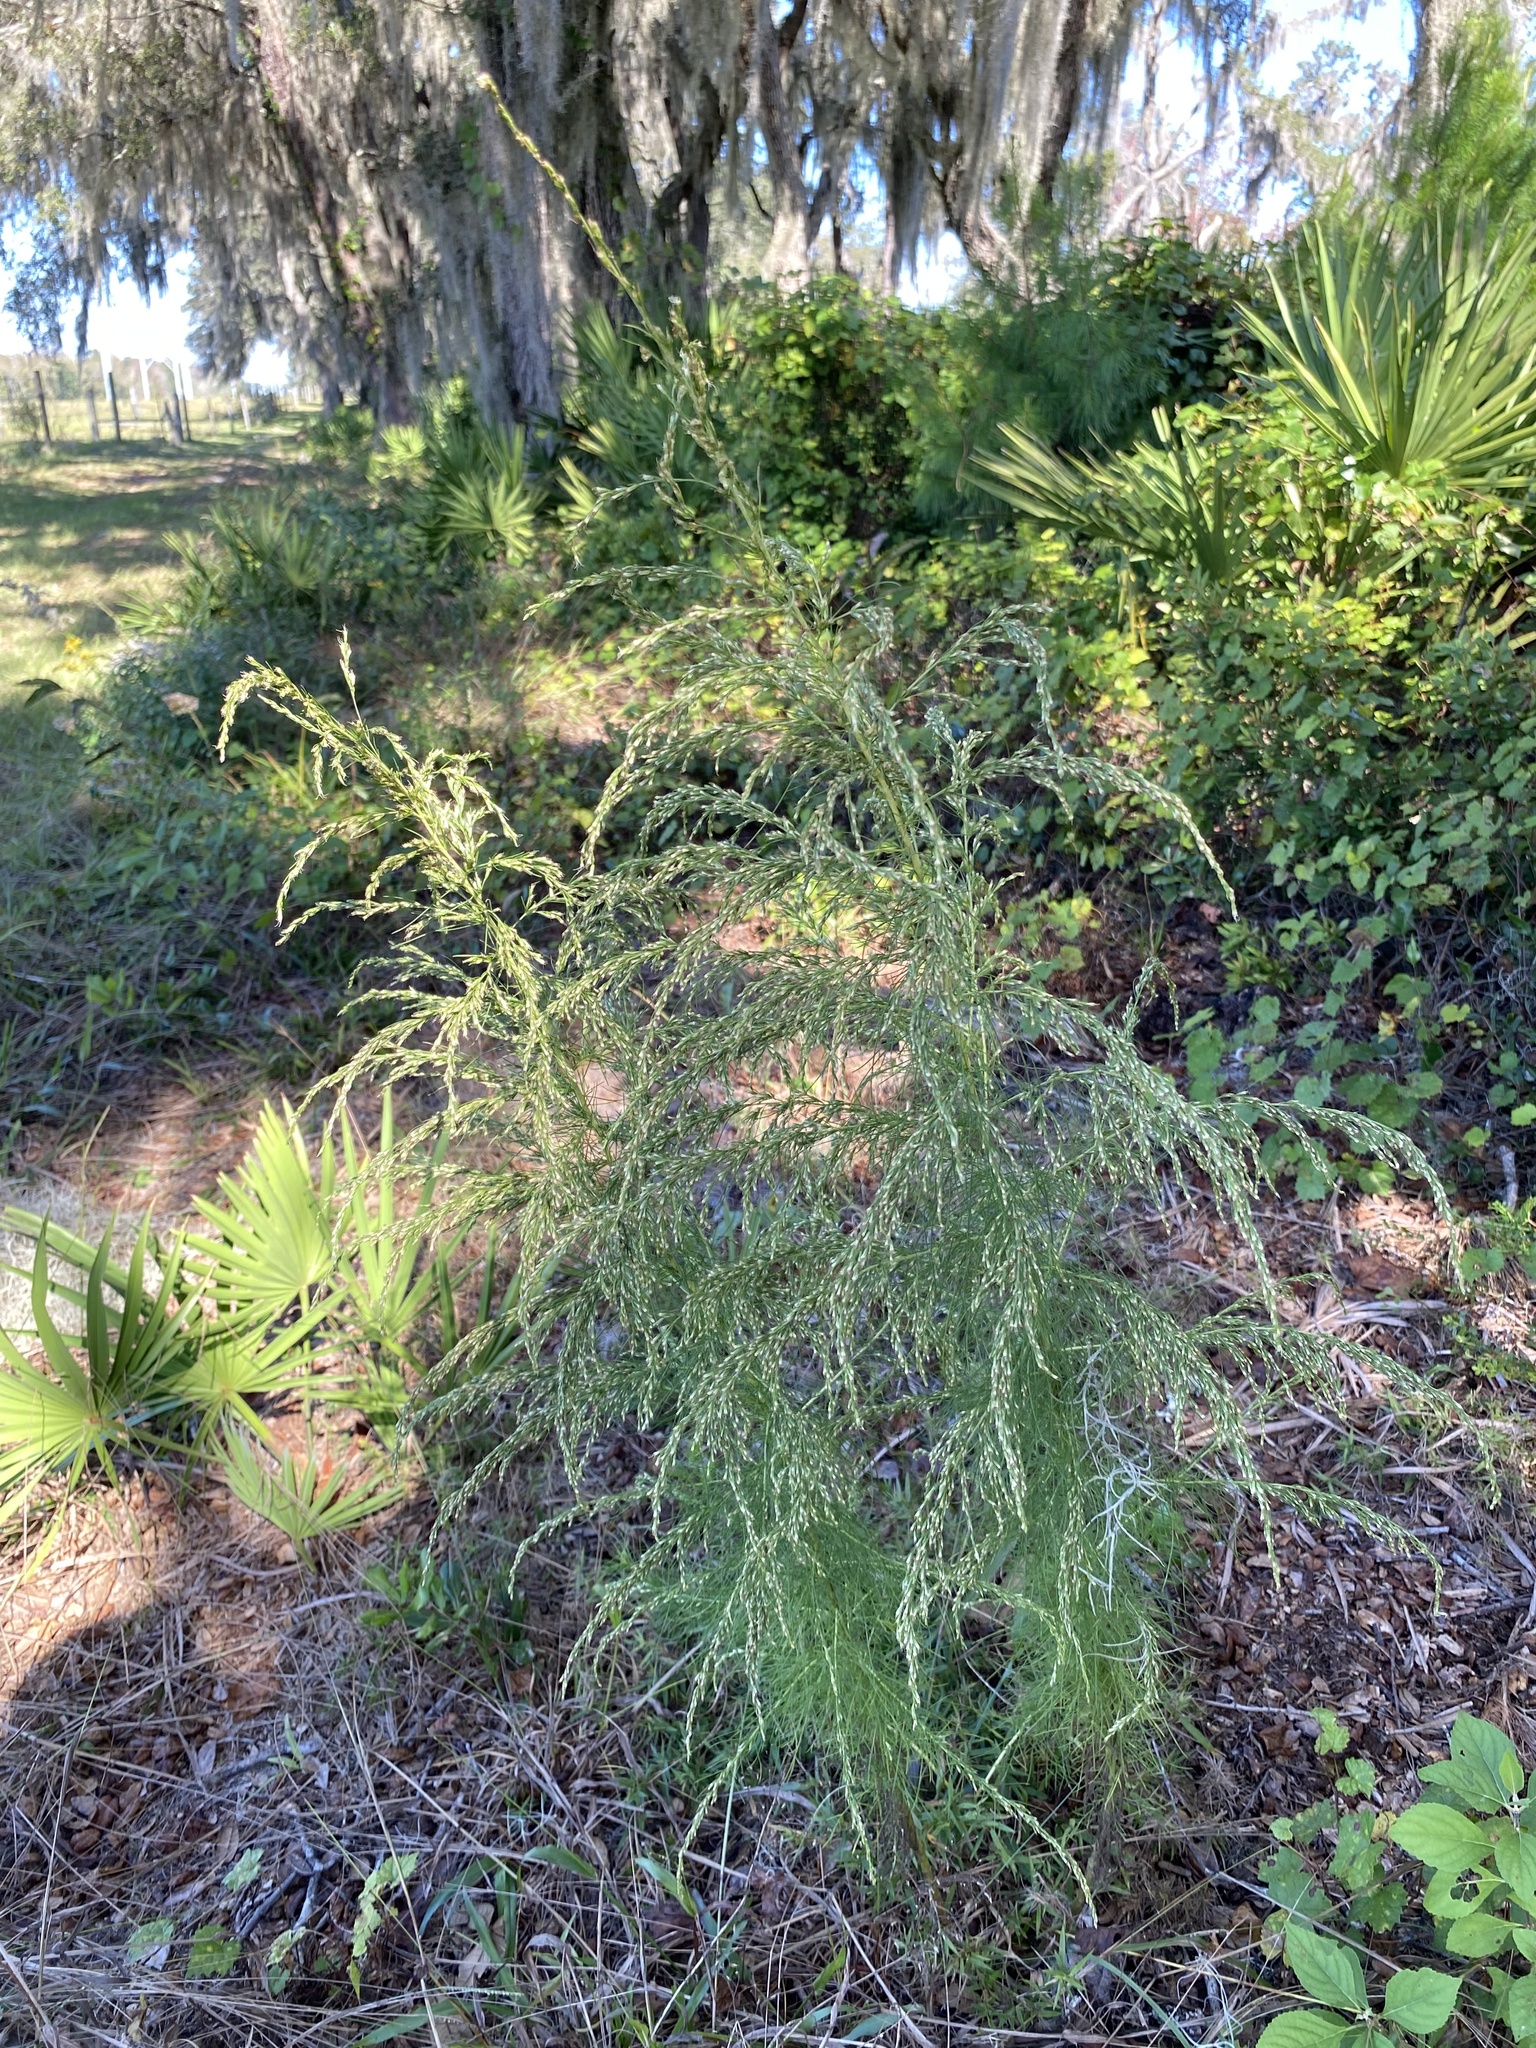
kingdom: Plantae
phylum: Tracheophyta
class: Magnoliopsida
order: Asterales
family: Asteraceae
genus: Eupatorium
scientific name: Eupatorium capillifolium
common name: Dog-fennel
